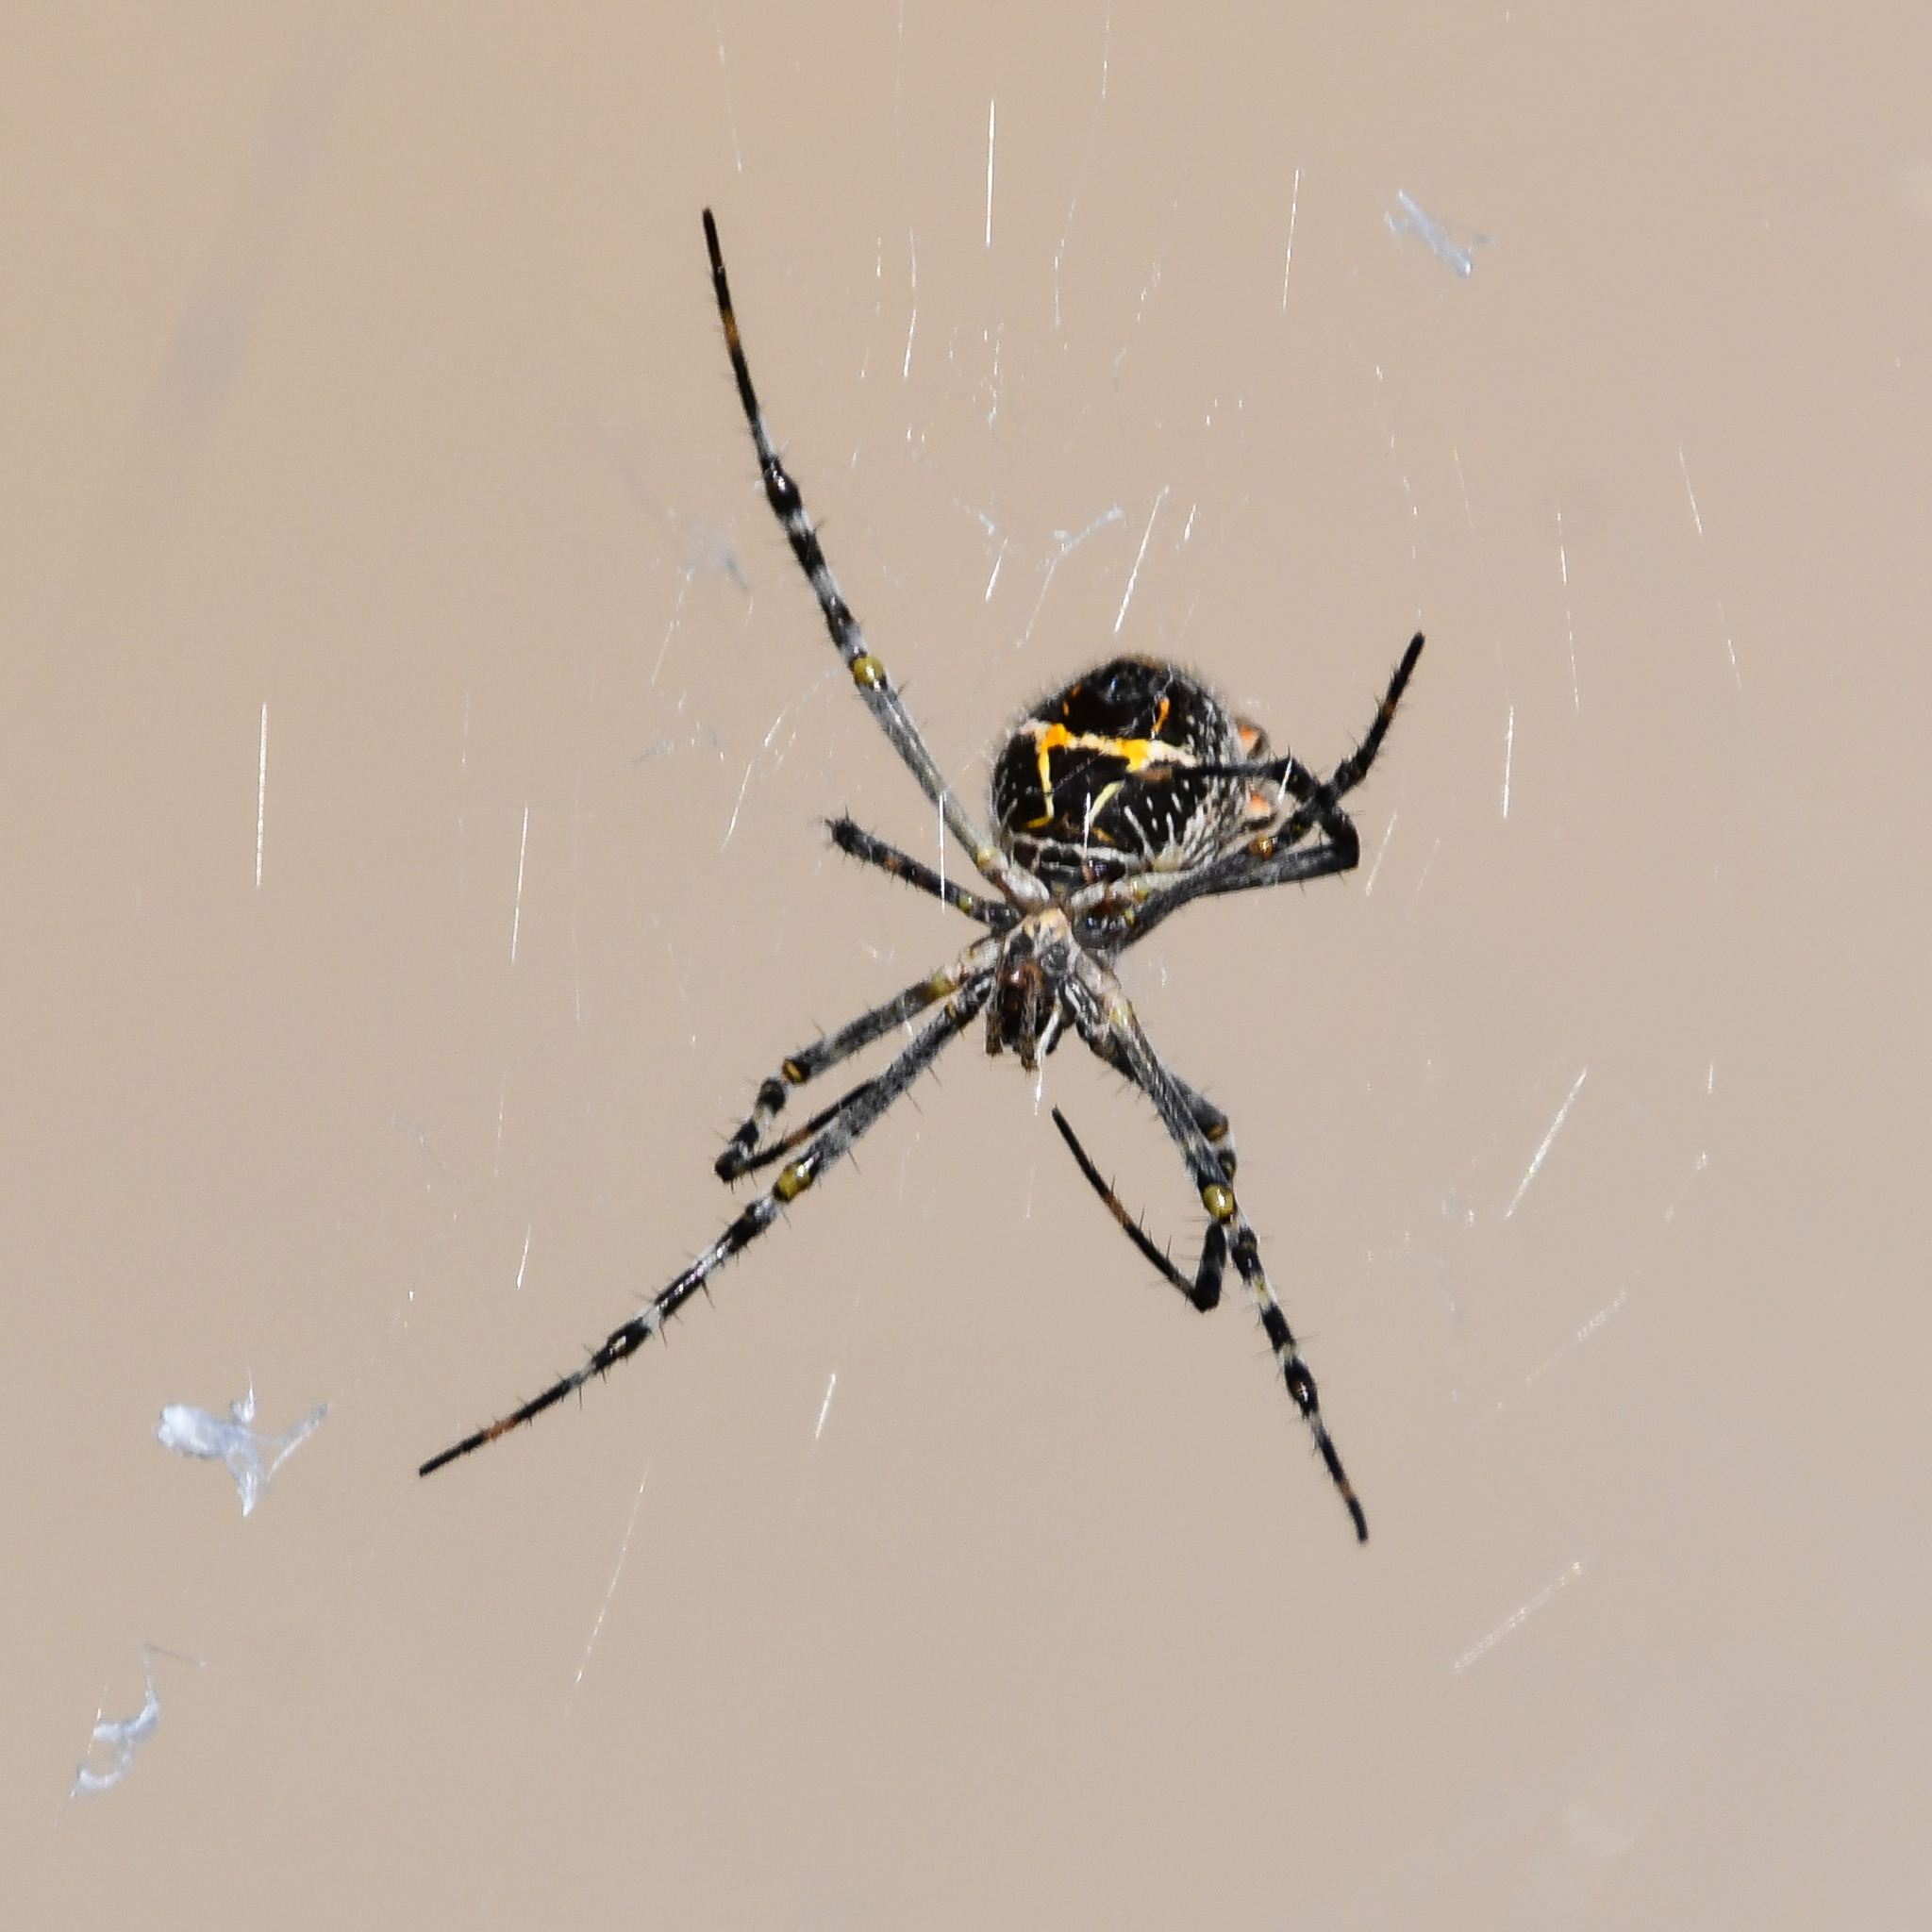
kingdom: Animalia
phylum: Arthropoda
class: Arachnida
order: Araneae
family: Araneidae
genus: Argiope
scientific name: Argiope argentata
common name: Orb weavers
